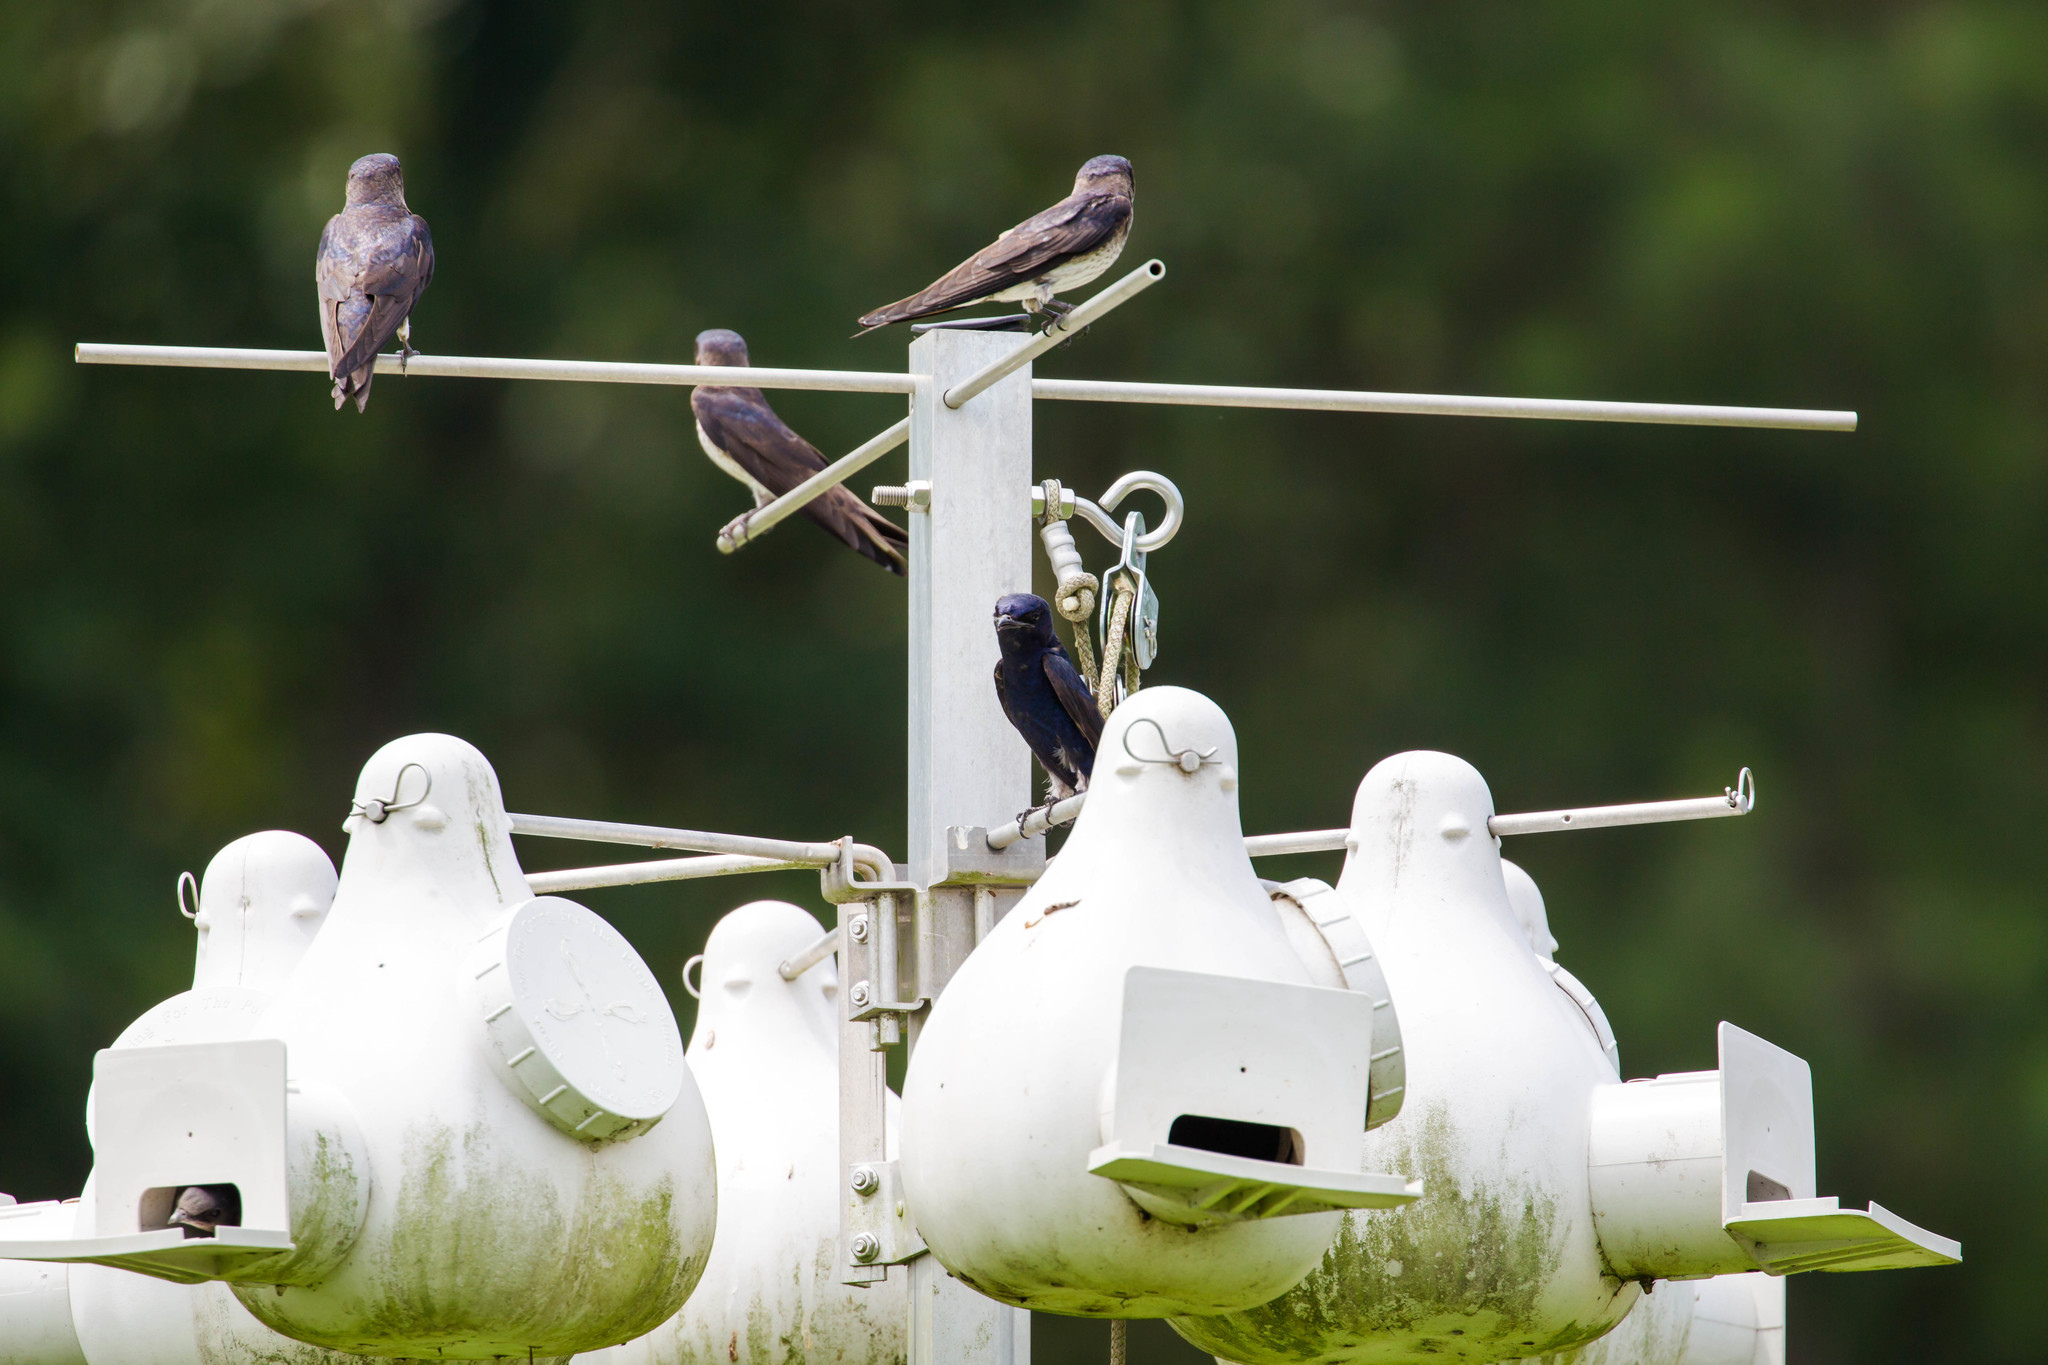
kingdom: Animalia
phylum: Chordata
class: Aves
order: Passeriformes
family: Hirundinidae
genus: Progne
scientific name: Progne subis
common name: Purple martin
